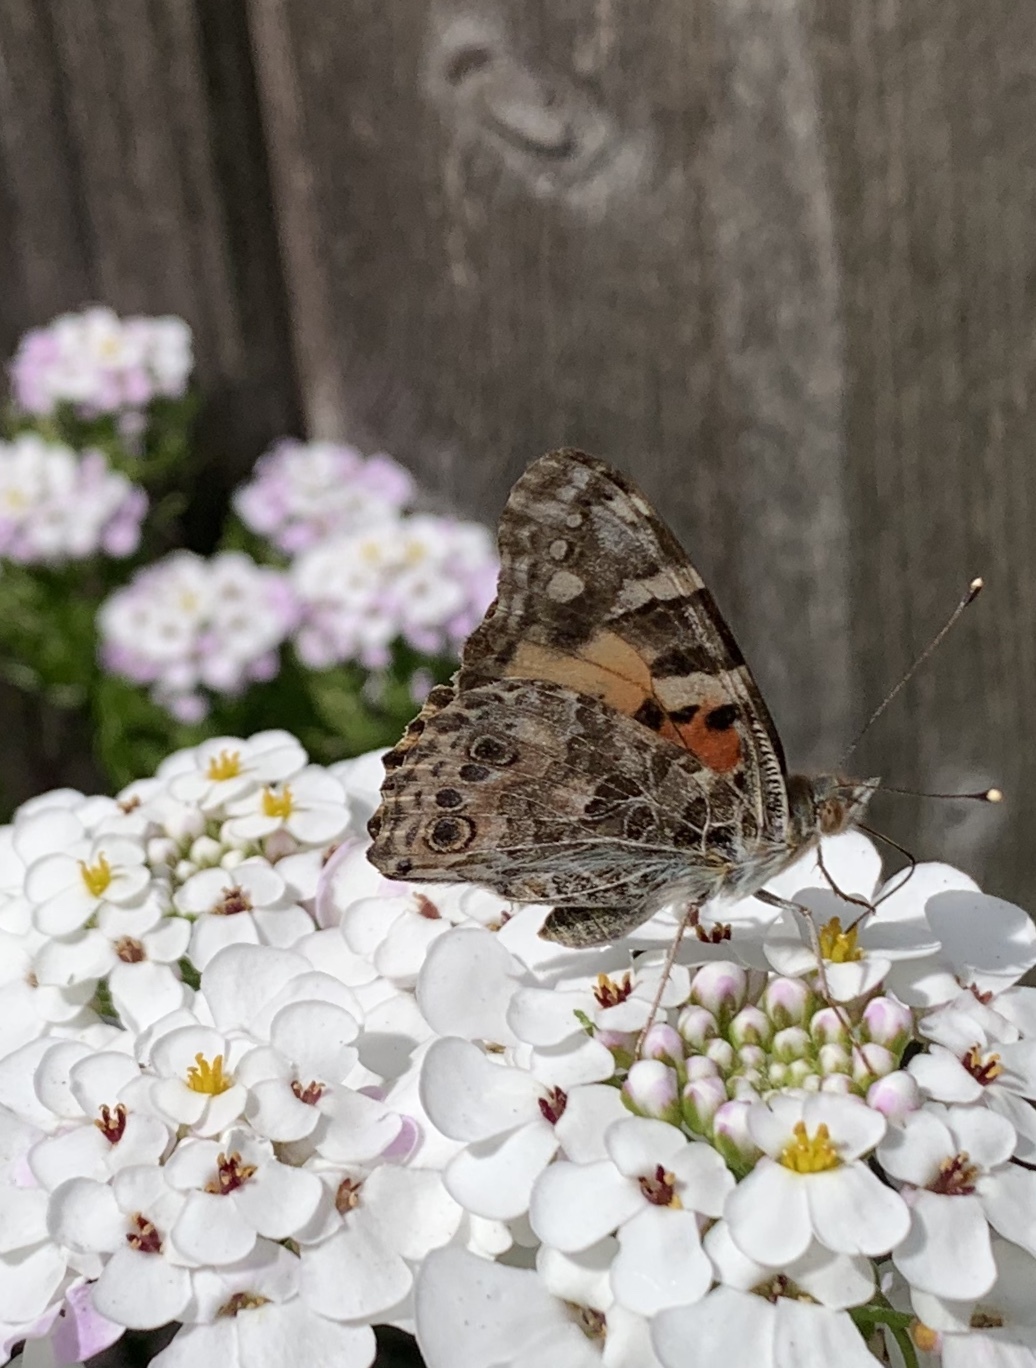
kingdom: Animalia
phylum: Arthropoda
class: Insecta
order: Lepidoptera
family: Nymphalidae
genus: Vanessa
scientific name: Vanessa cardui
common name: Painted lady
